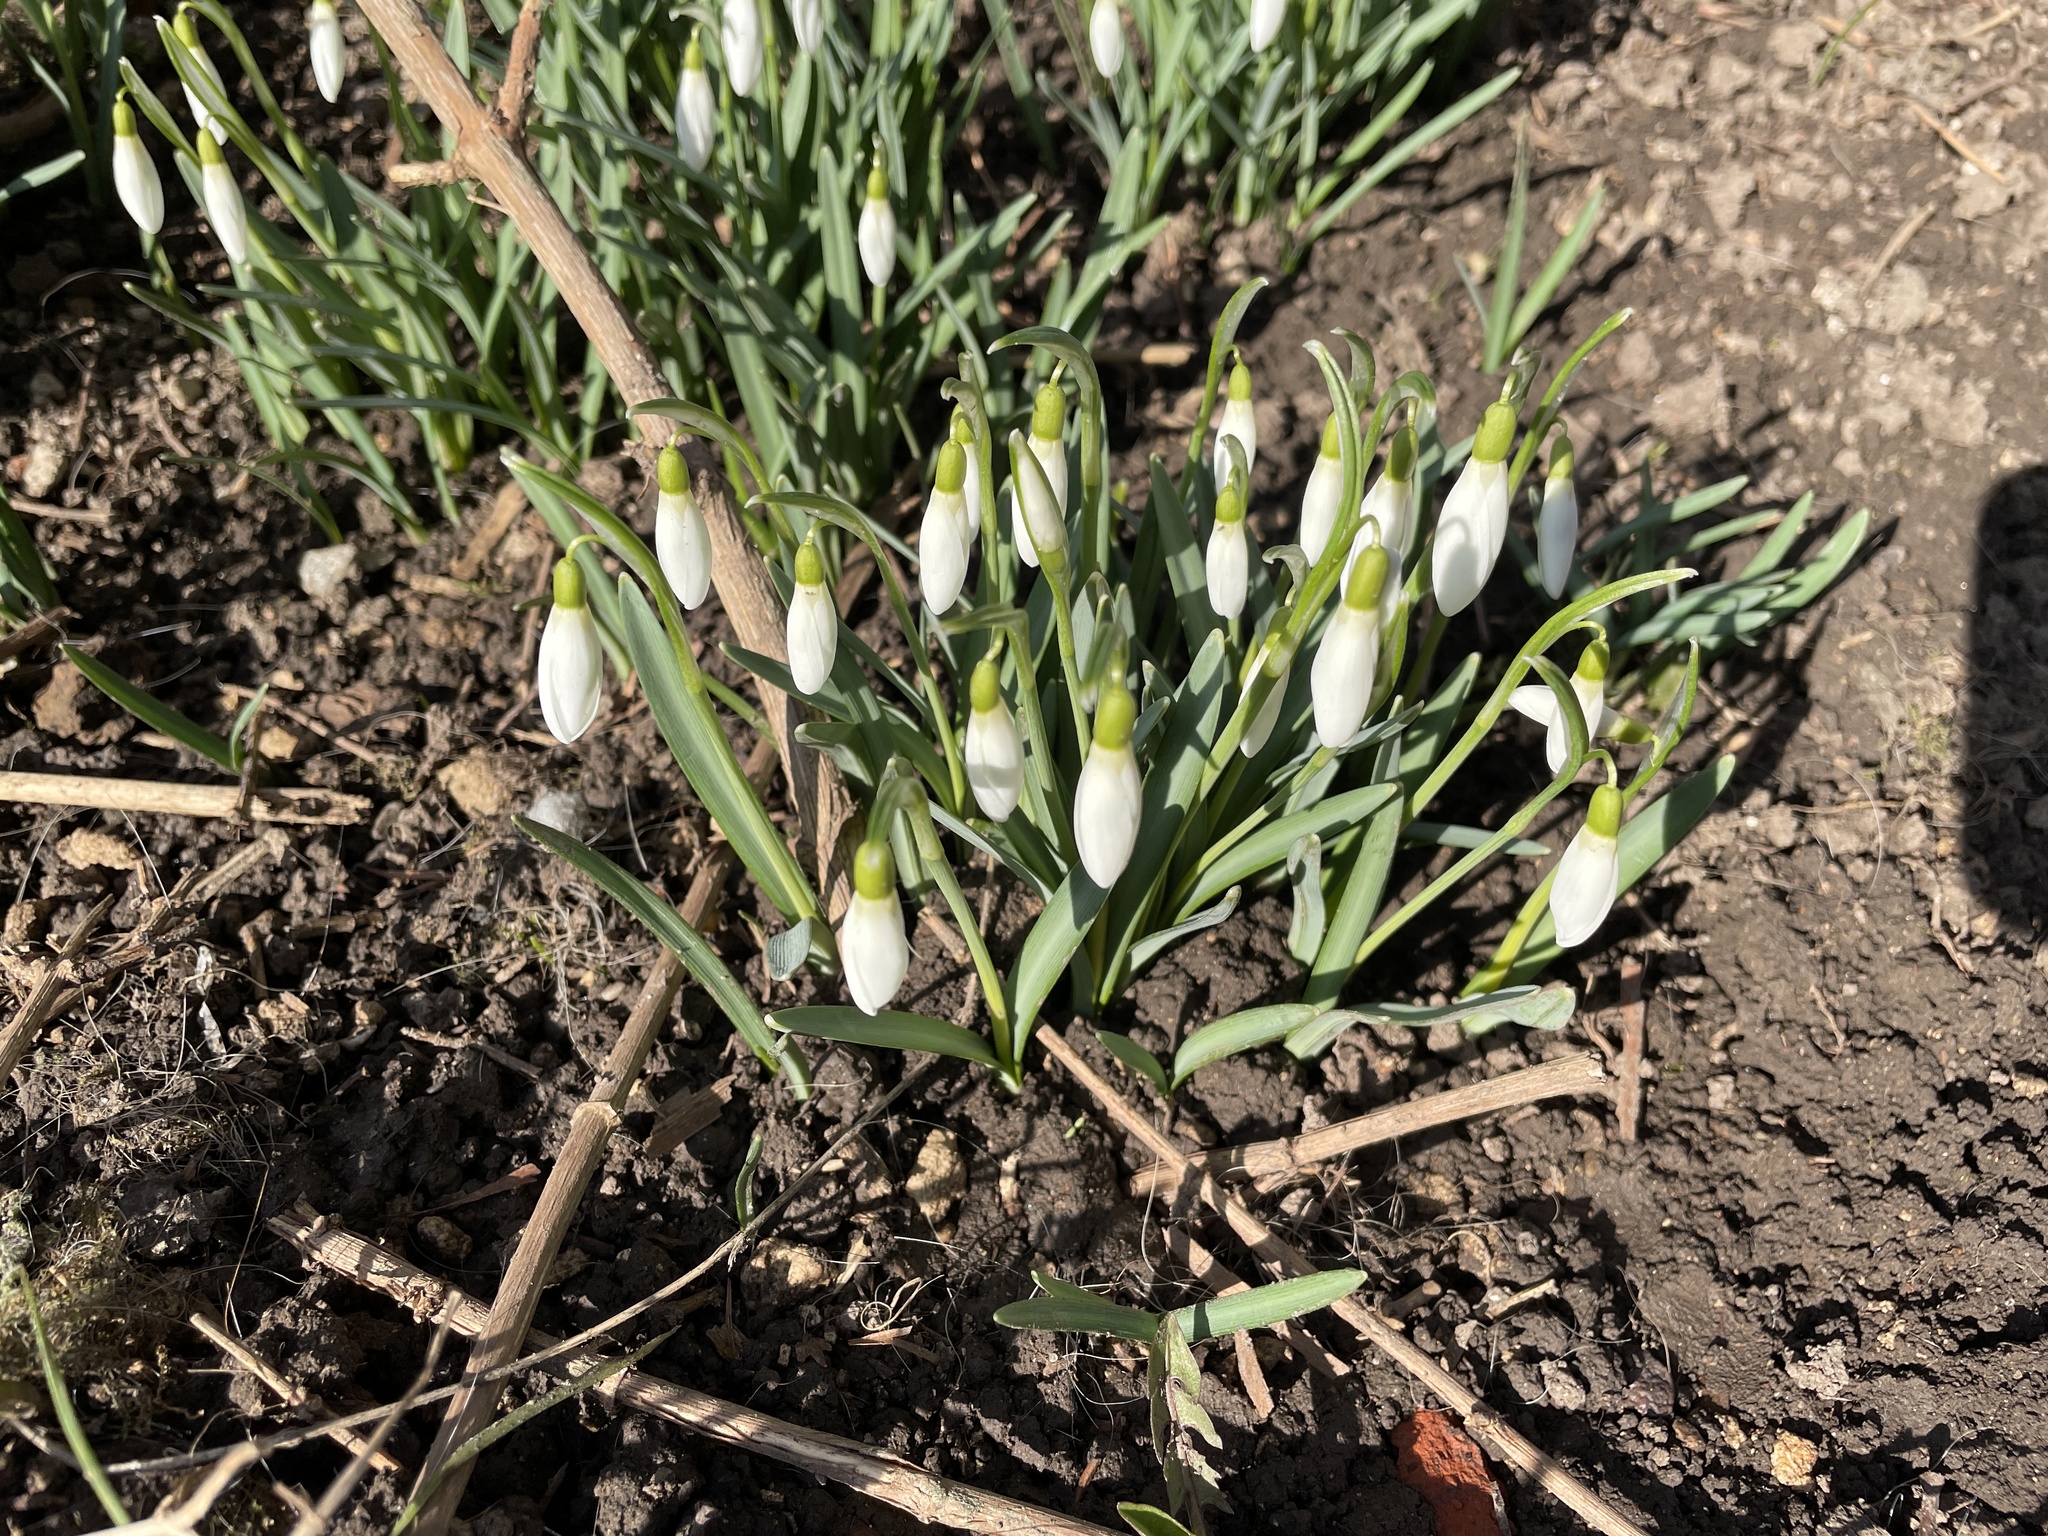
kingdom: Plantae
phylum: Tracheophyta
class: Liliopsida
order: Asparagales
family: Amaryllidaceae
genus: Galanthus
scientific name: Galanthus nivalis
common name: Snowdrop
